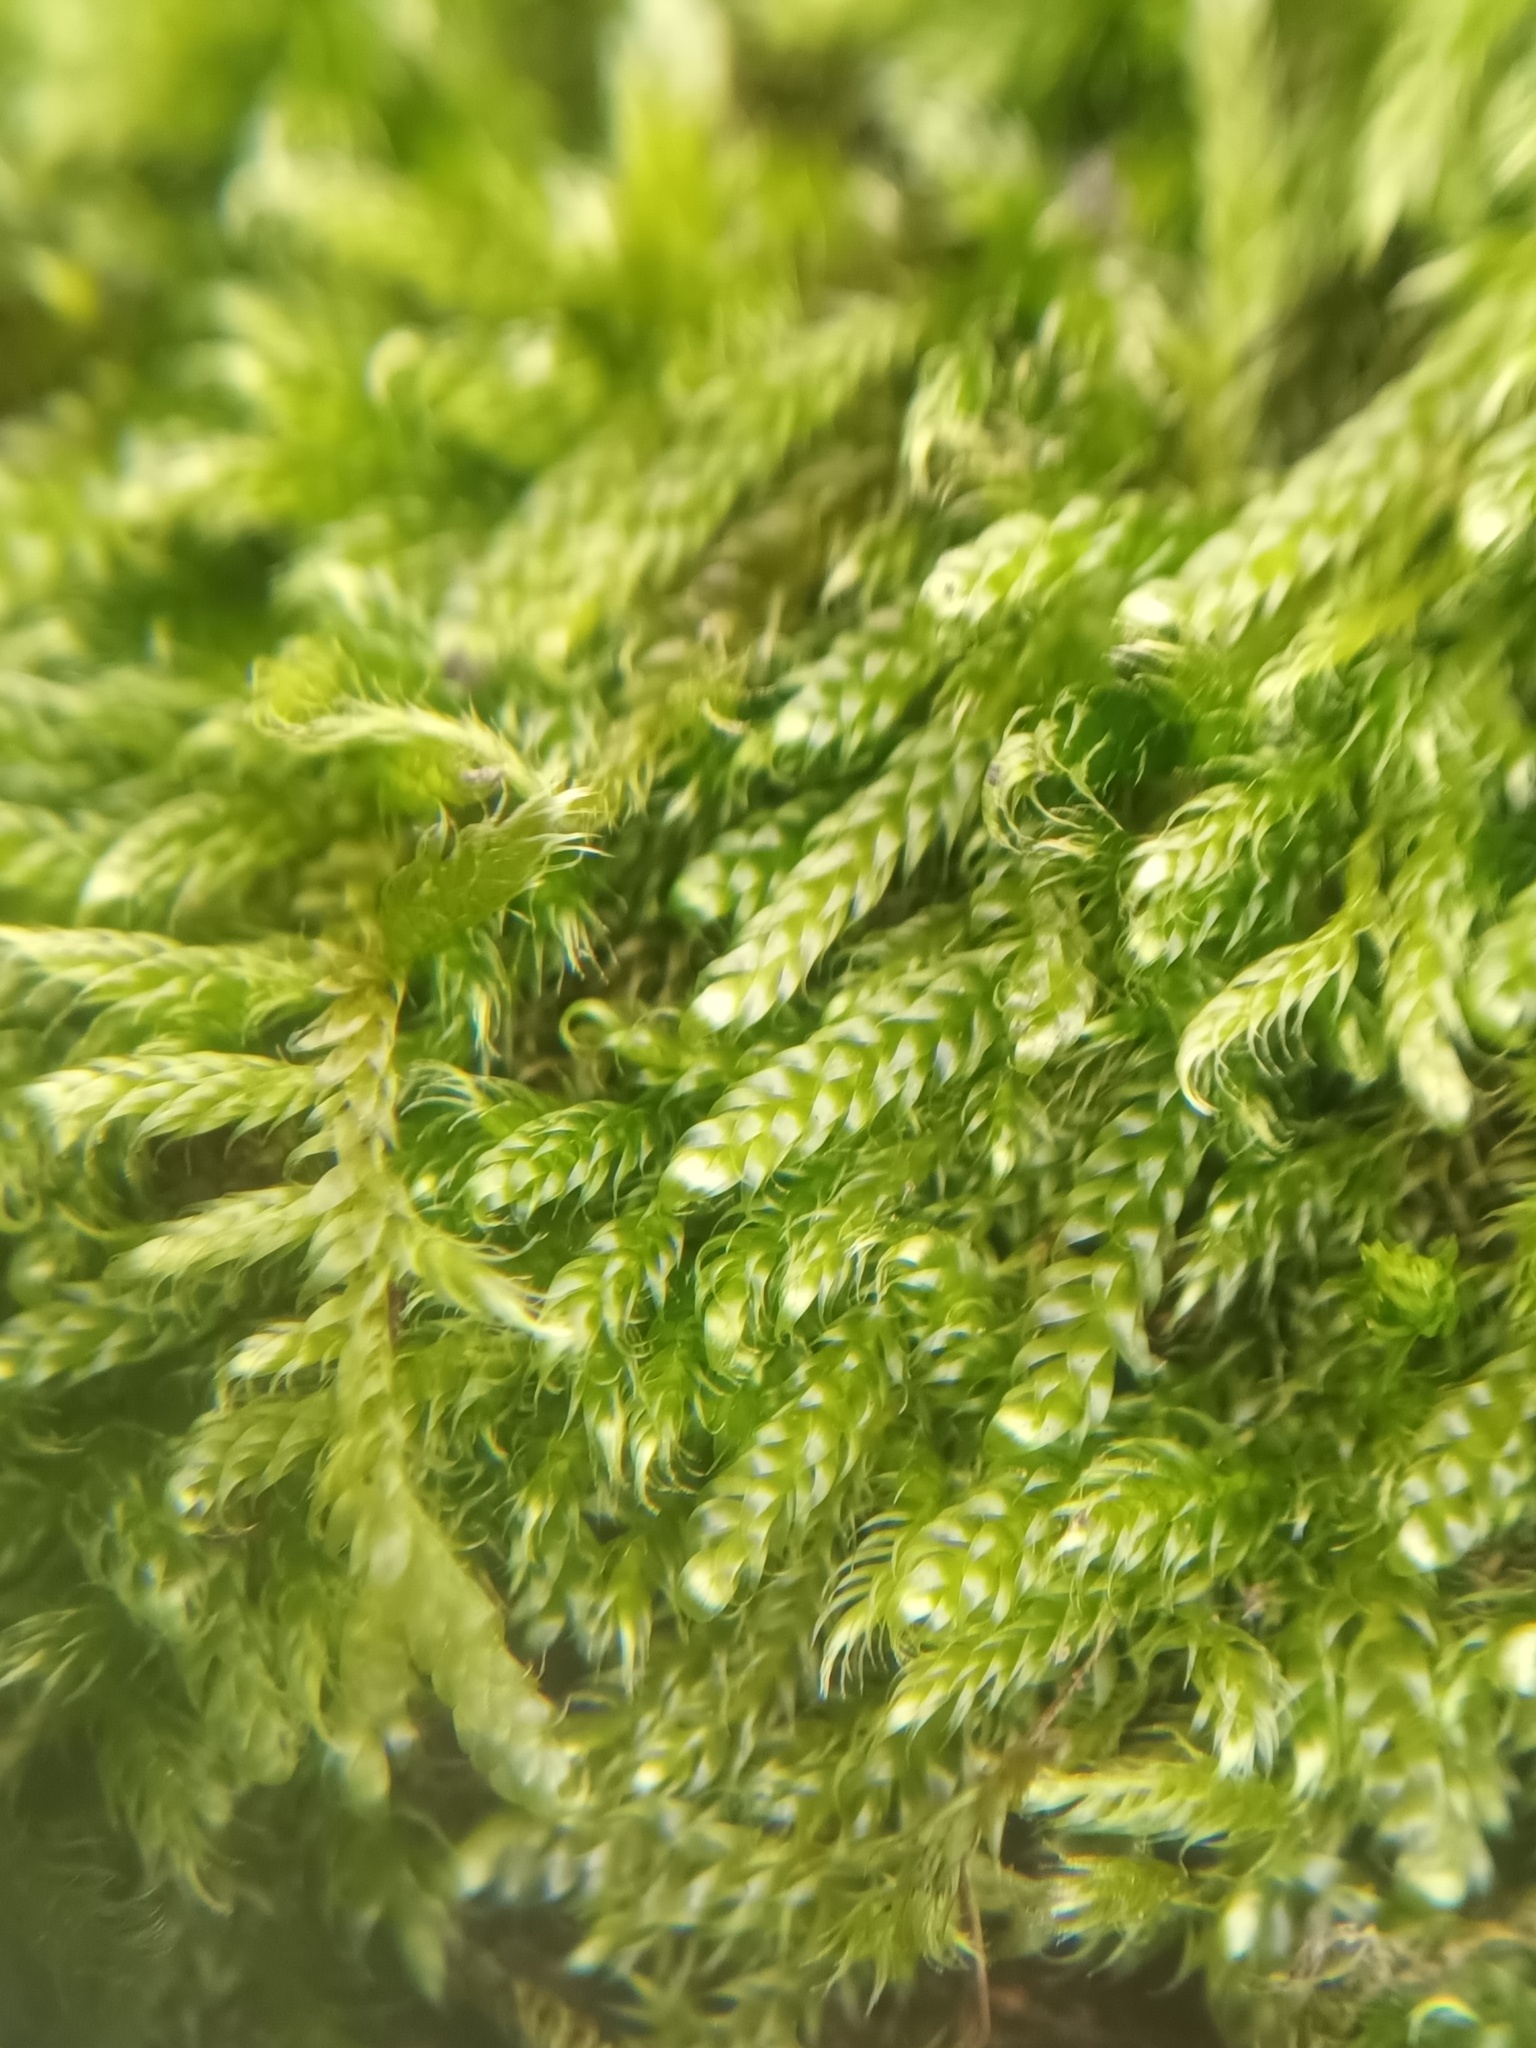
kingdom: Plantae
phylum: Bryophyta
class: Bryopsida
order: Hypnales
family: Hypnaceae
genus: Hypnum
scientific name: Hypnum cupressiforme
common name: Cypress-leaved plait-moss
